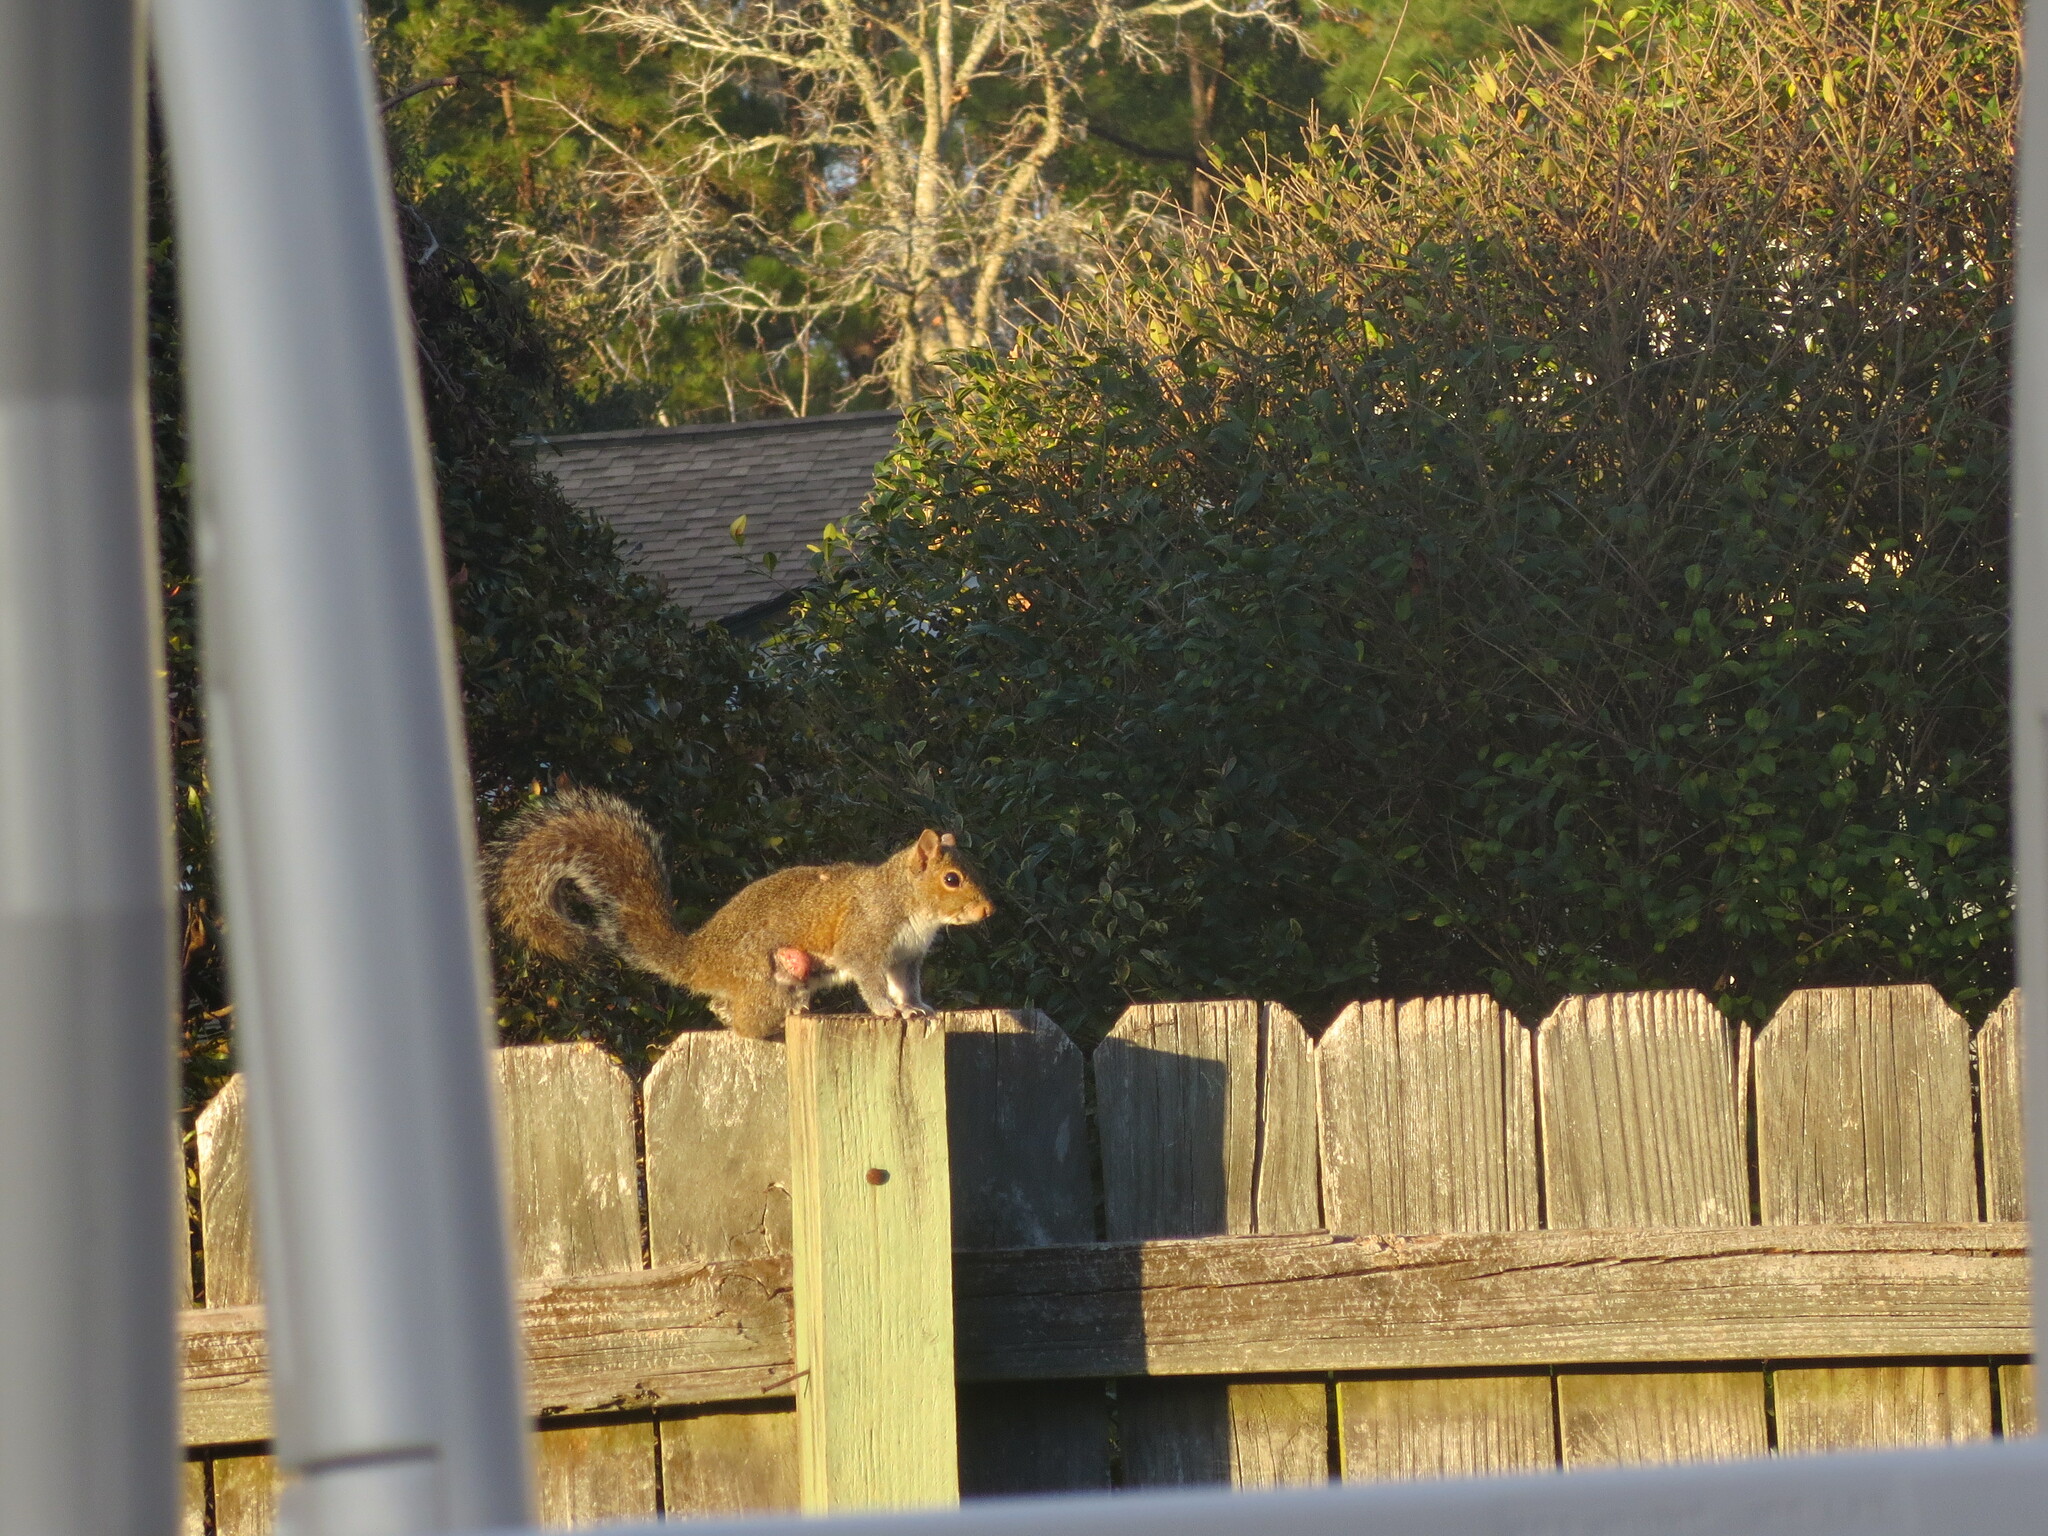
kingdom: Animalia
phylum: Chordata
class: Mammalia
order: Rodentia
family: Sciuridae
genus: Sciurus
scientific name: Sciurus carolinensis
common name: Eastern gray squirrel
